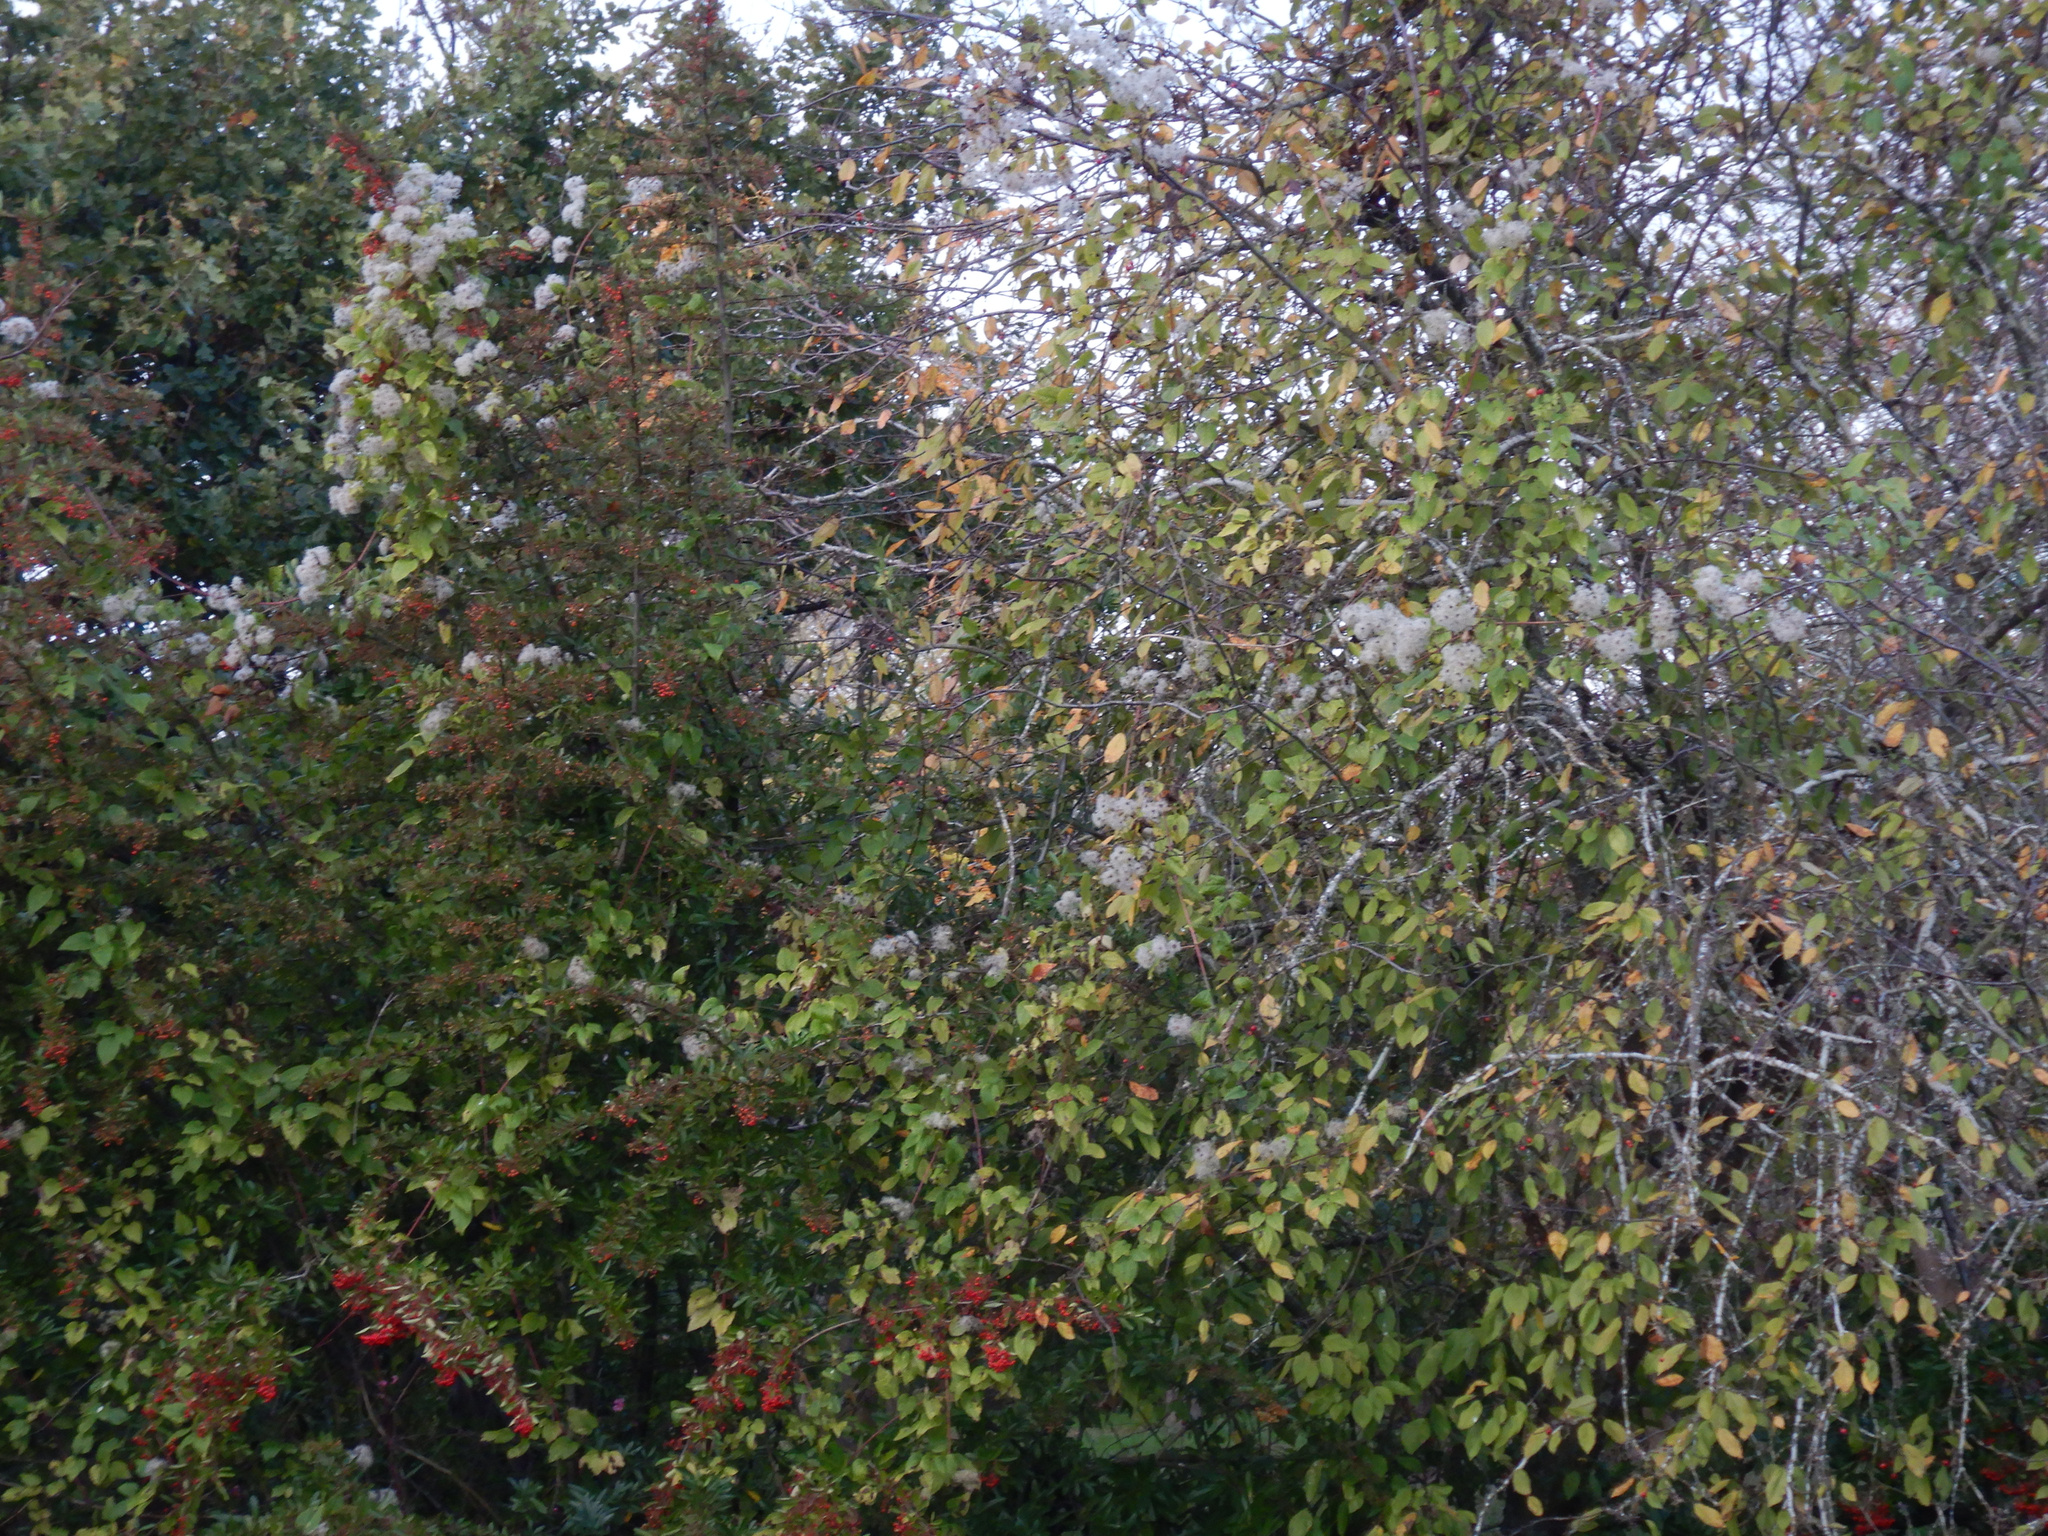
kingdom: Plantae
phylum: Tracheophyta
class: Magnoliopsida
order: Ranunculales
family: Ranunculaceae
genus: Clematis
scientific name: Clematis vitalba
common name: Evergreen clematis
